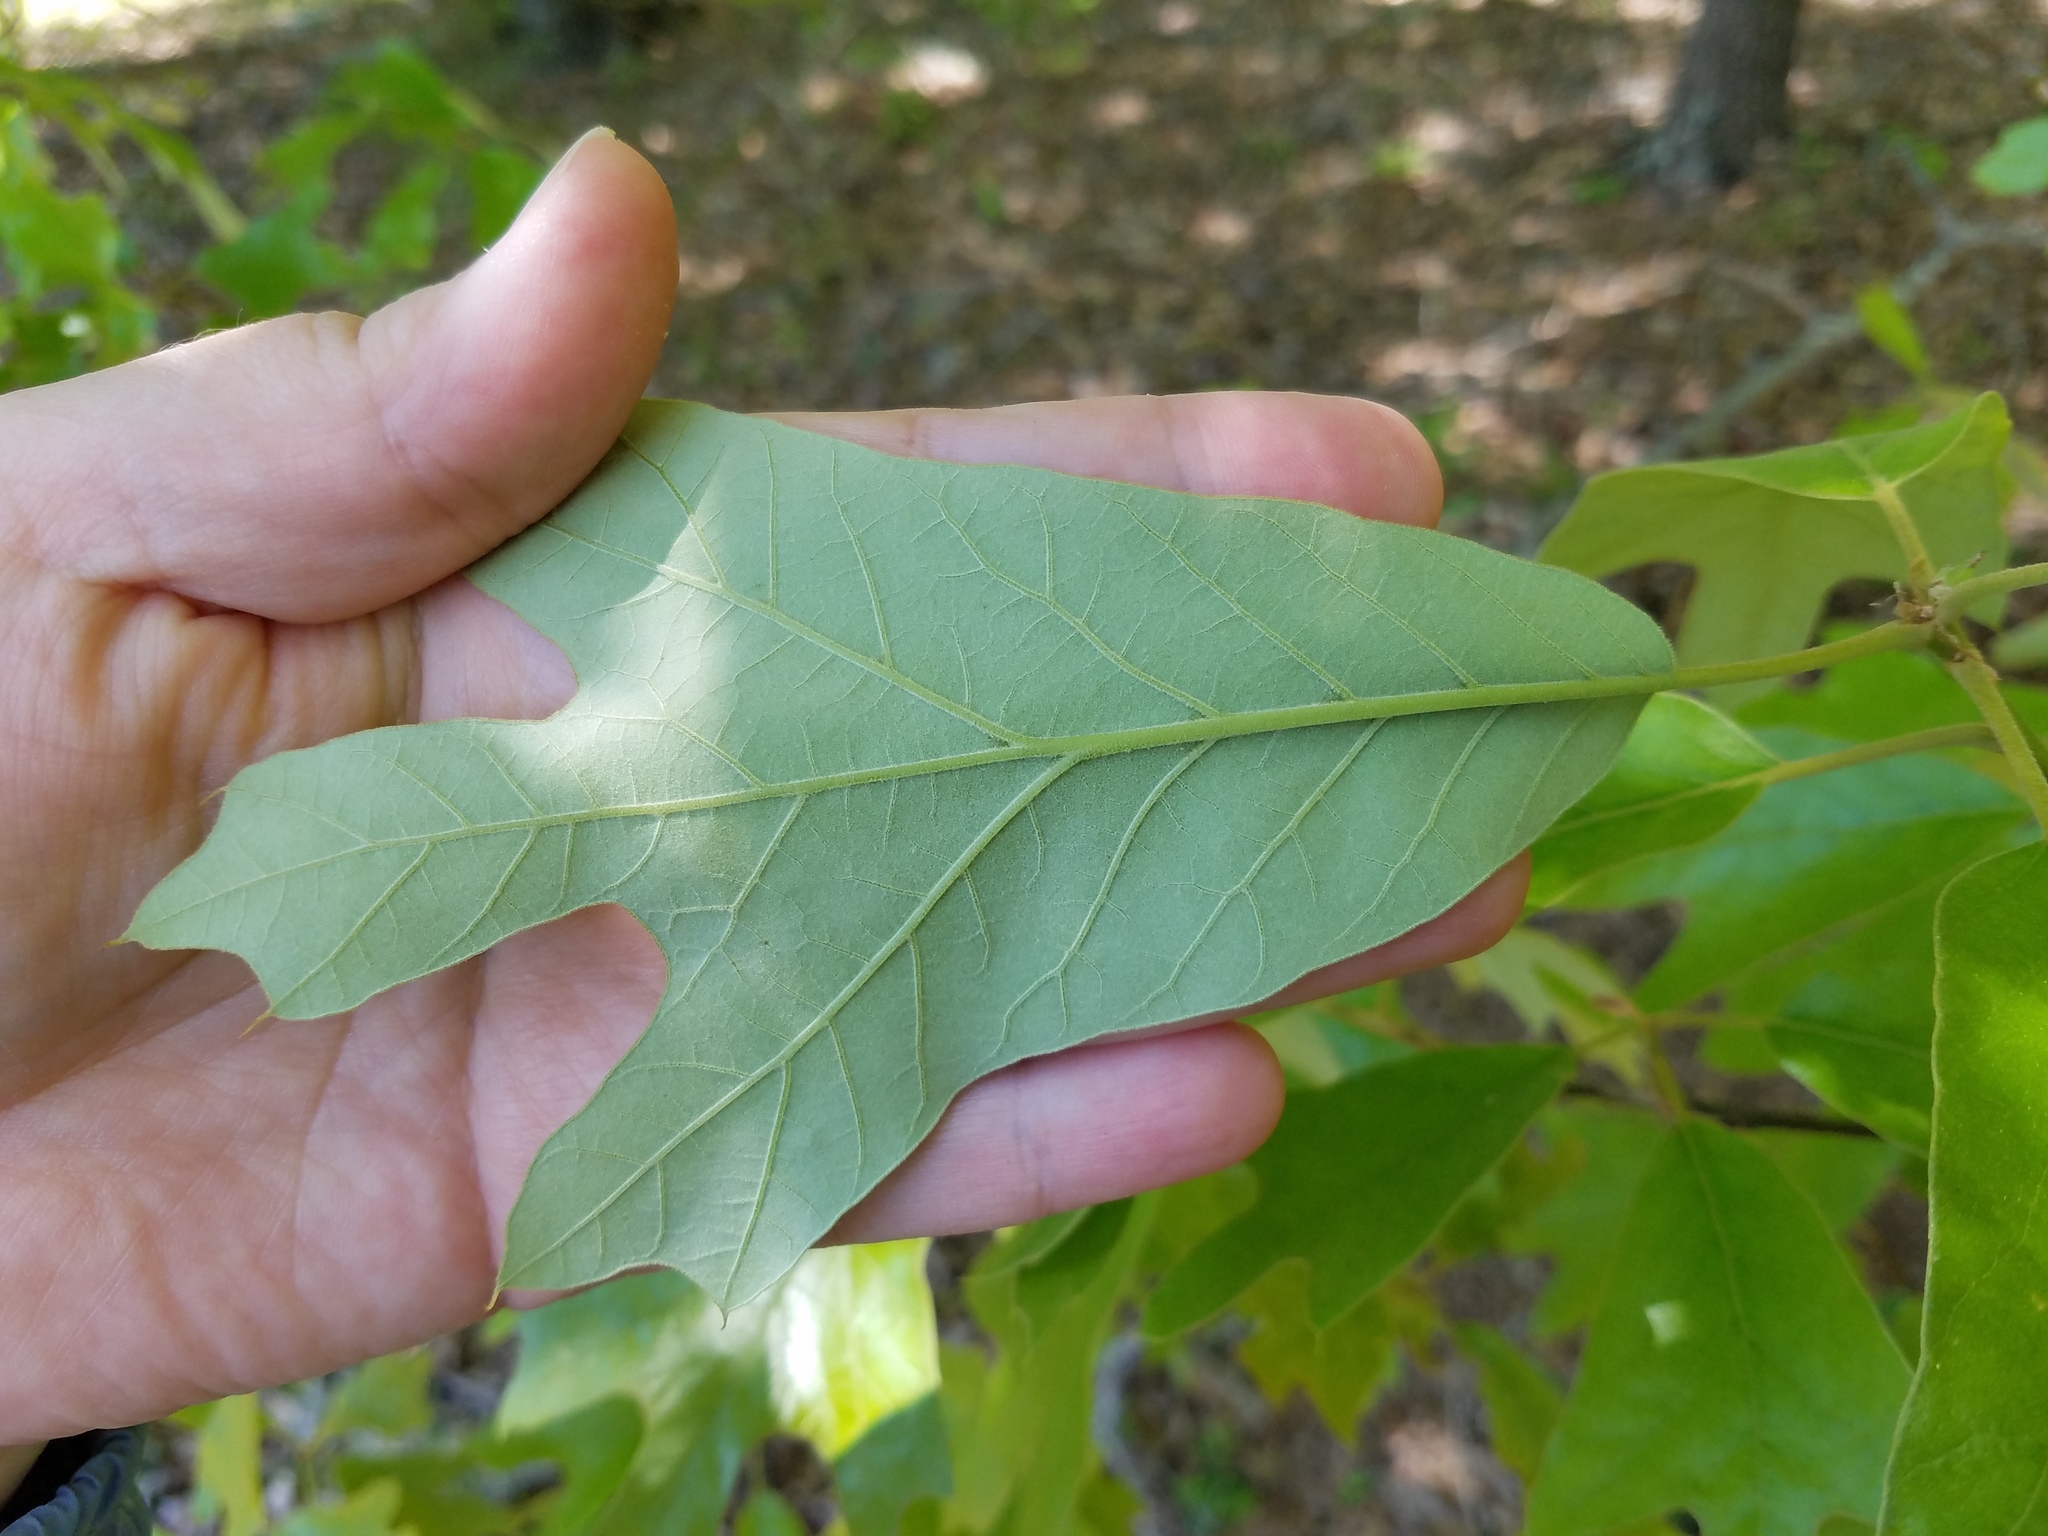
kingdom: Plantae
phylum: Tracheophyta
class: Magnoliopsida
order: Fagales
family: Fagaceae
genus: Quercus
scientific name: Quercus falcata
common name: Southern red oak
